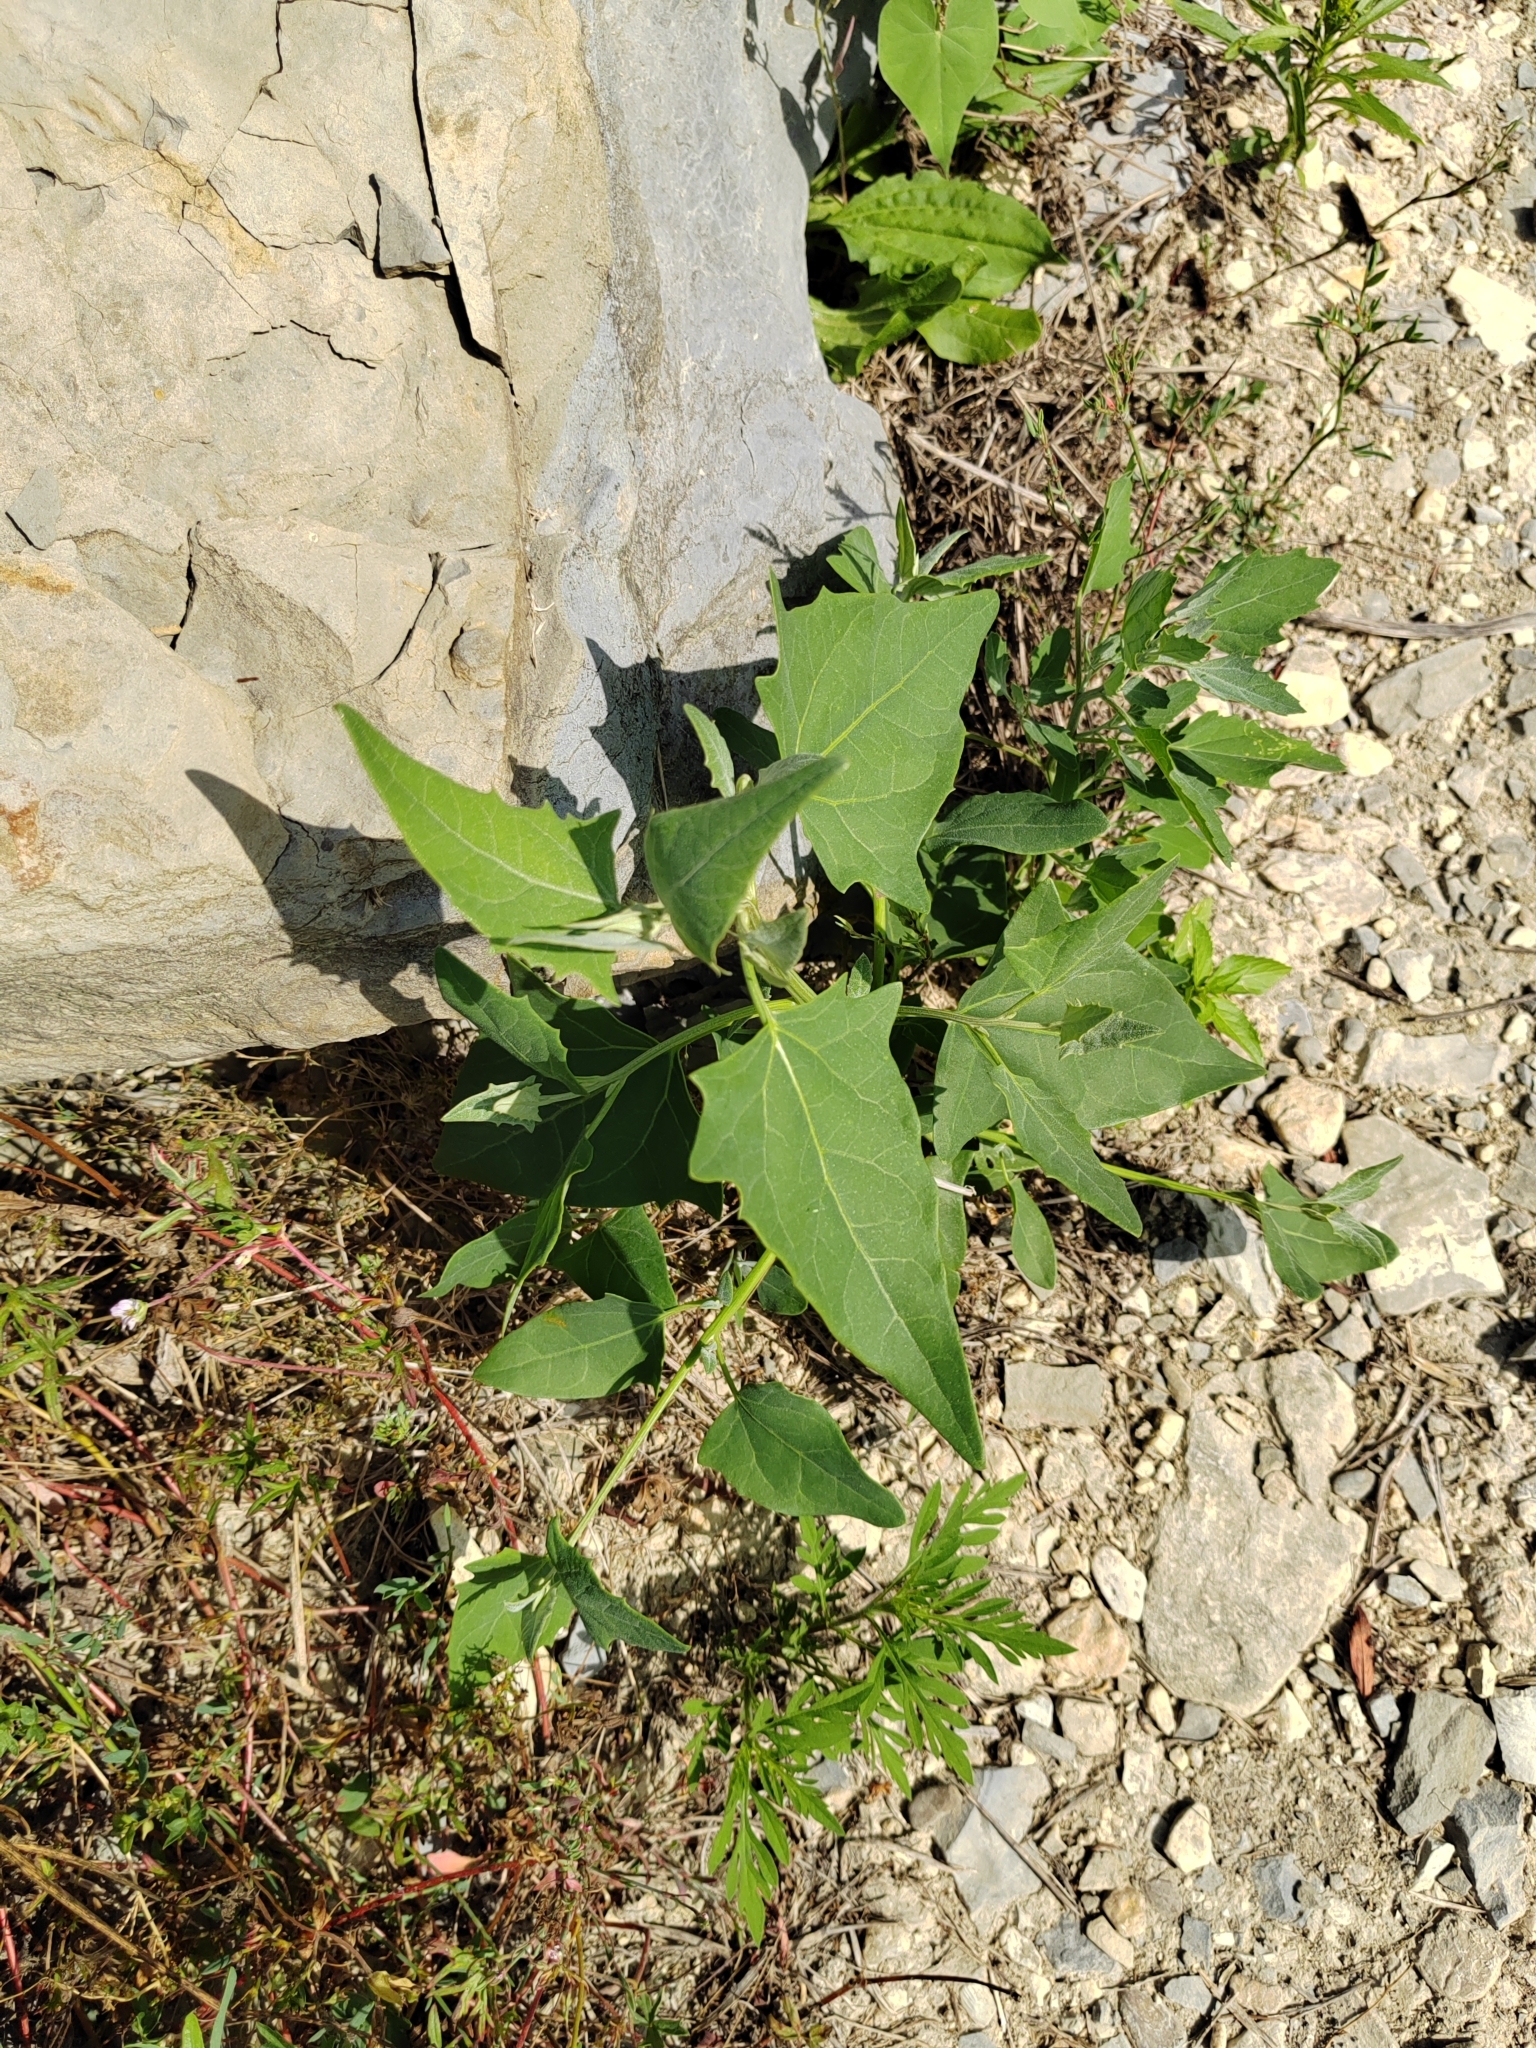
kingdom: Plantae
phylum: Tracheophyta
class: Magnoliopsida
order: Caryophyllales
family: Amaranthaceae
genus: Atriplex
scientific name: Atriplex sagittata
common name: Purple orache
